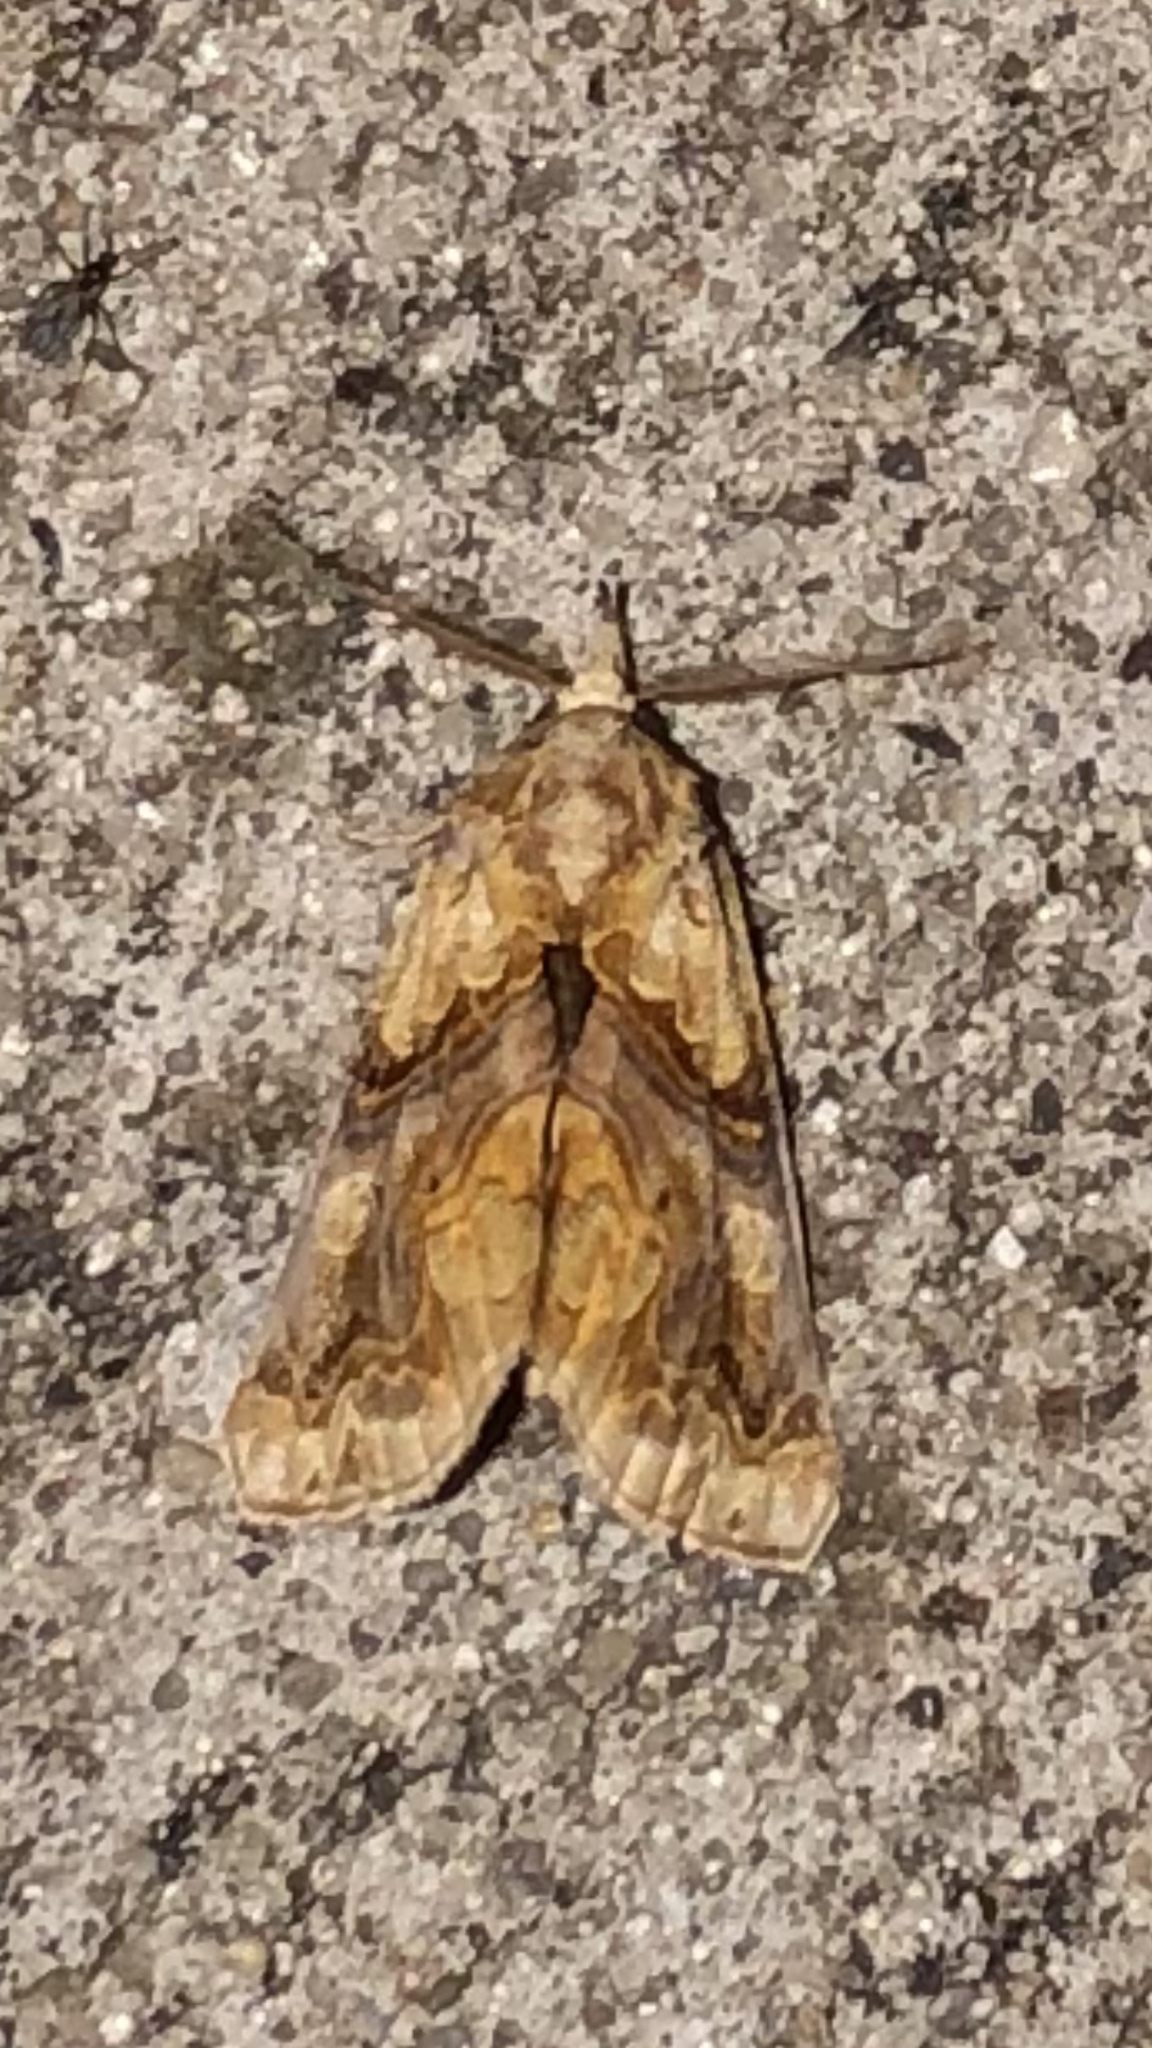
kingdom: Animalia
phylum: Arthropoda
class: Insecta
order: Lepidoptera
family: Erebidae
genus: Plusiodonta
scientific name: Plusiodonta compressipalpis
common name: Moonseed moth
